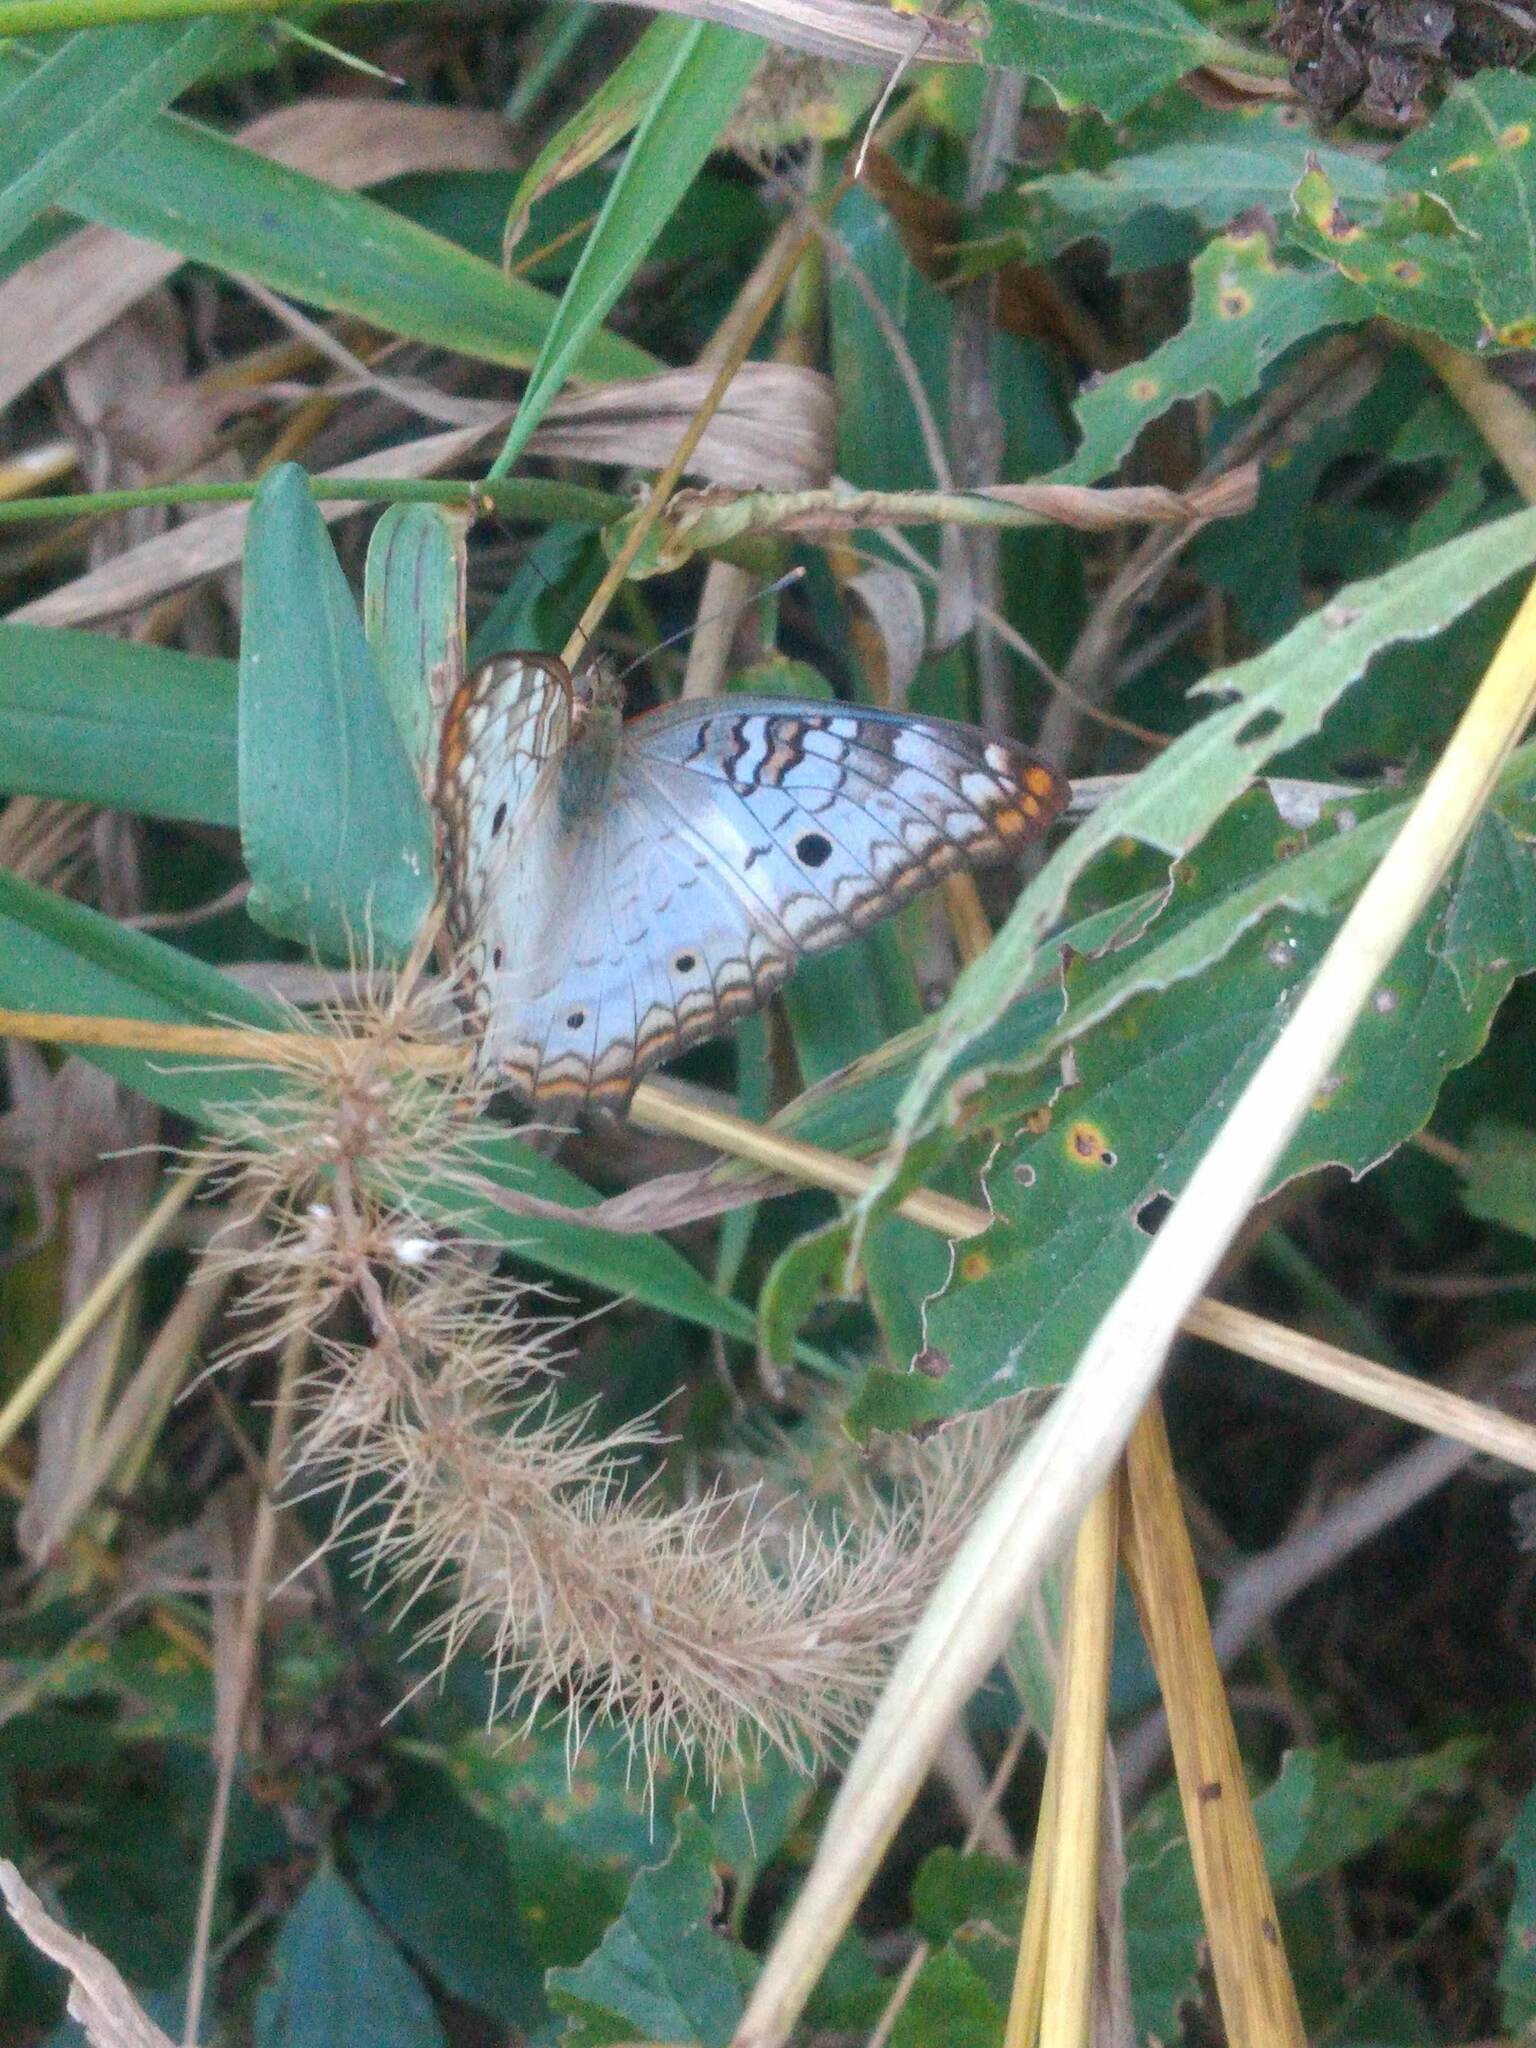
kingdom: Animalia
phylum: Arthropoda
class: Insecta
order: Lepidoptera
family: Nymphalidae
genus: Anartia
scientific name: Anartia jatrophae
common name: White peacock
